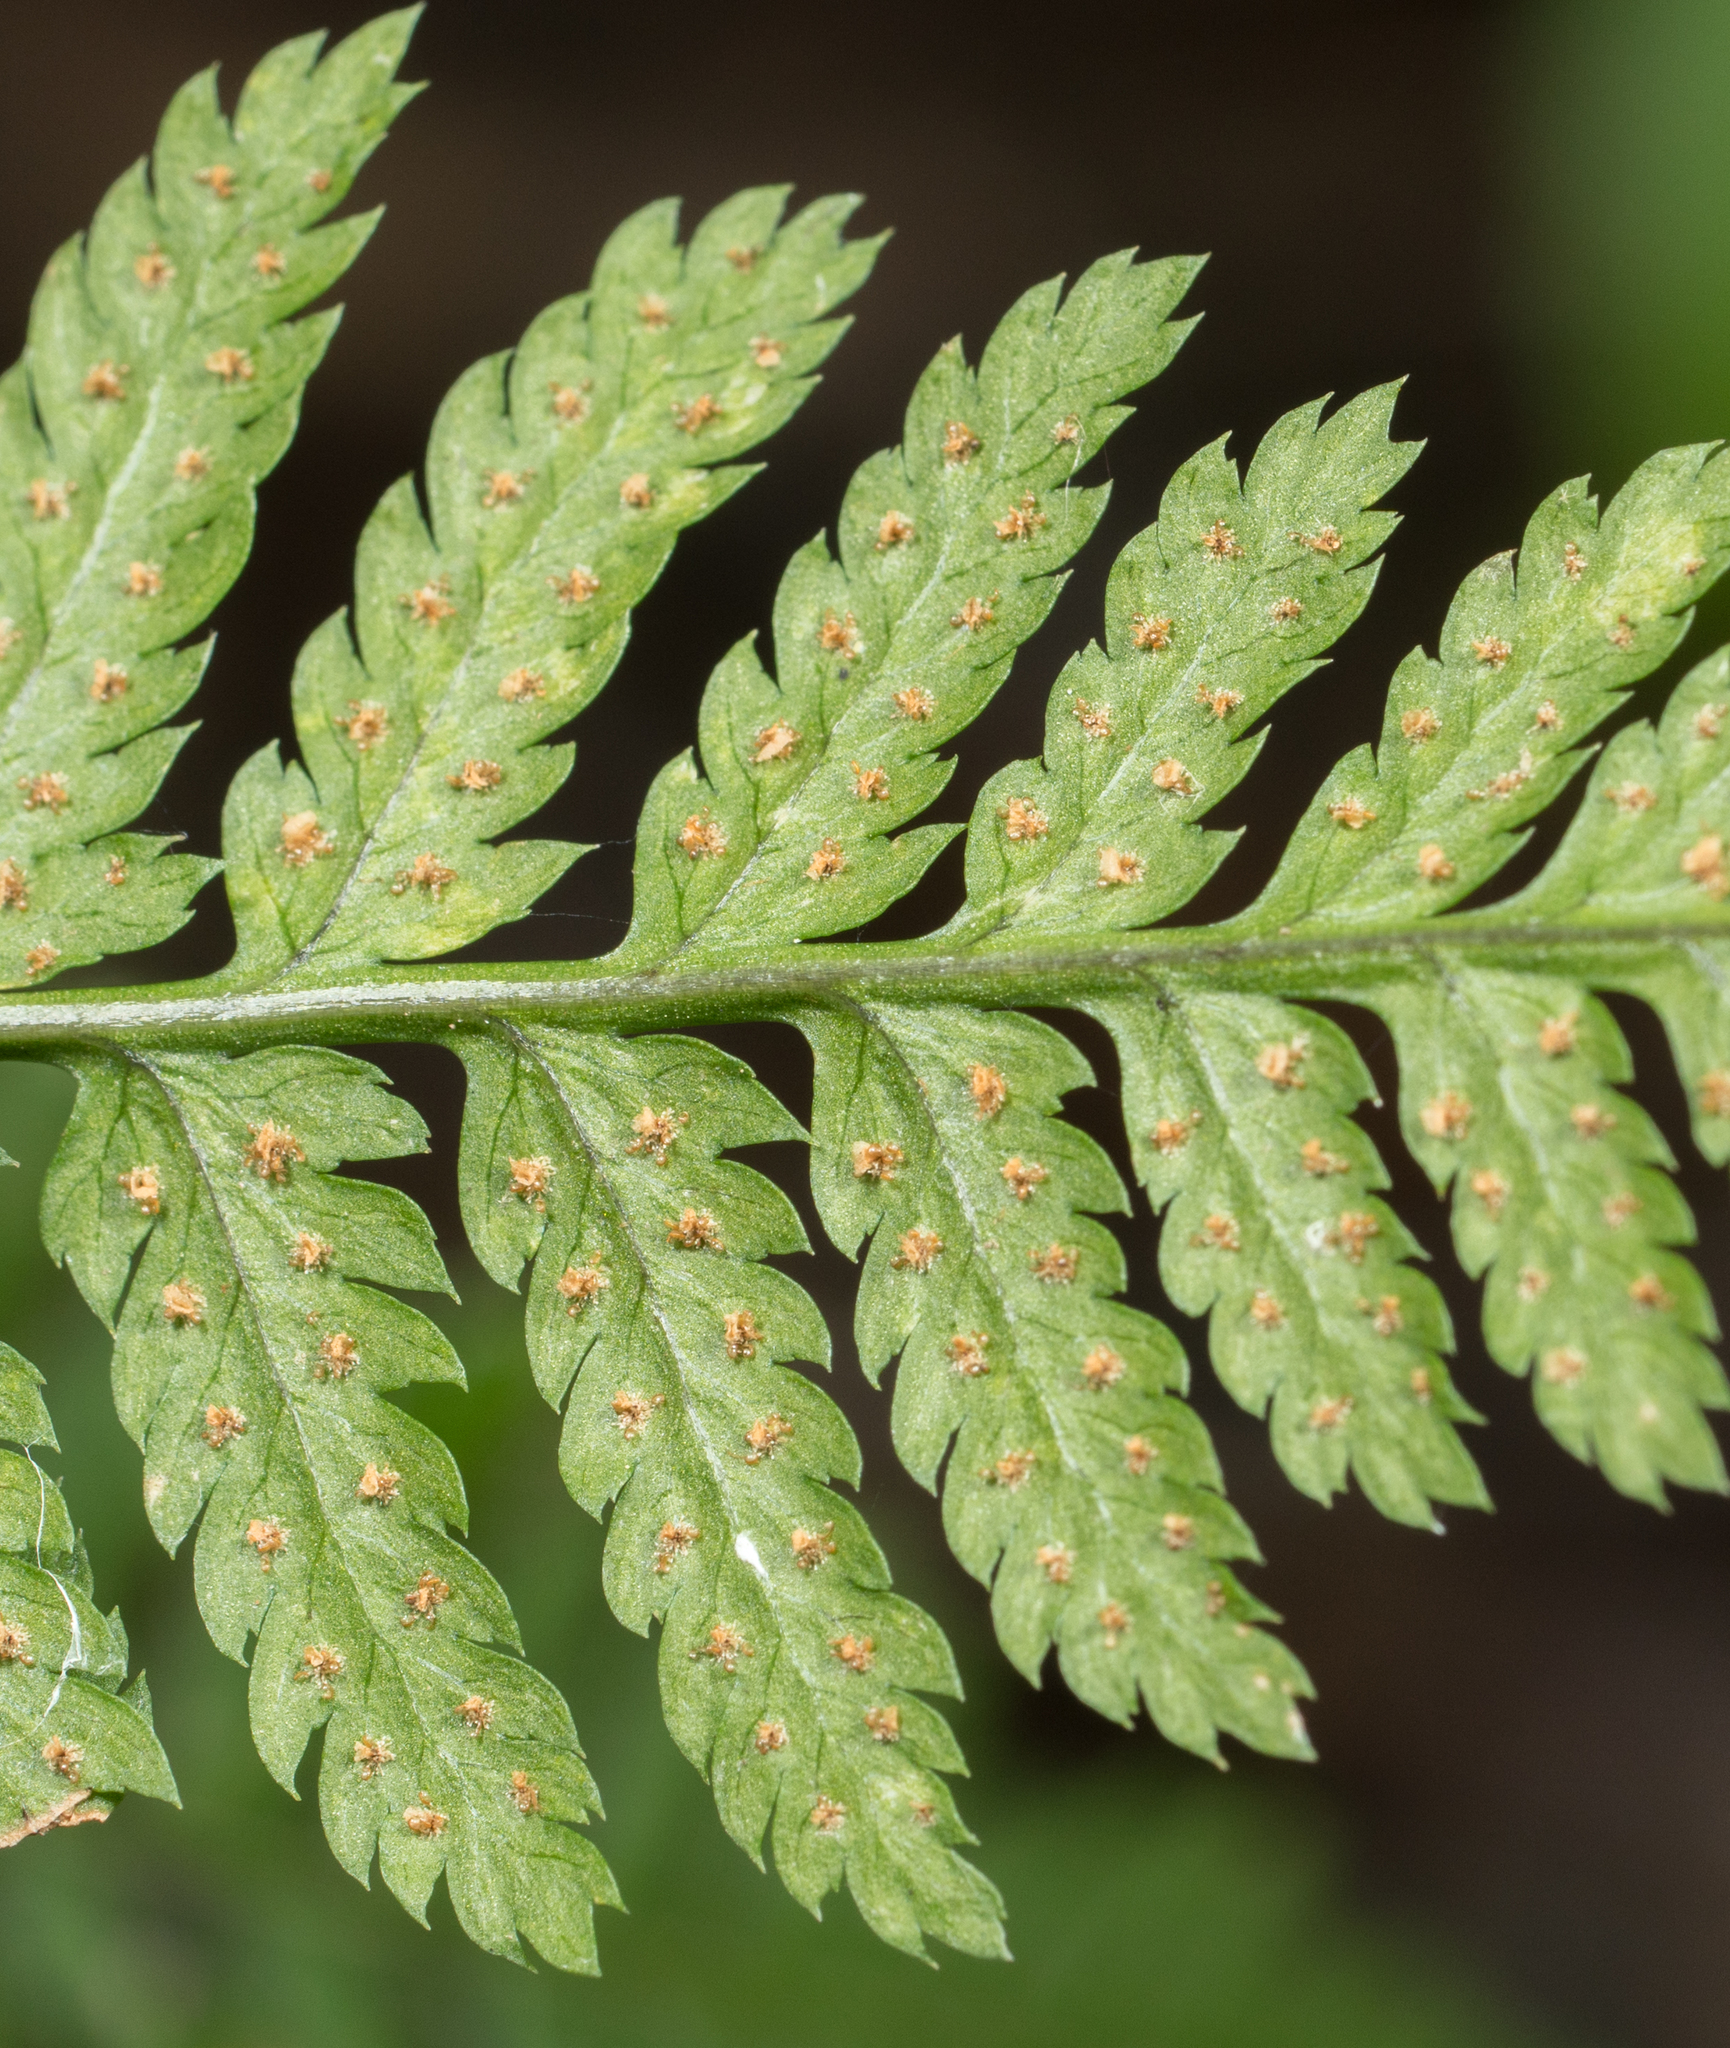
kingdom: Plantae
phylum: Tracheophyta
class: Polypodiopsida
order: Polypodiales
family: Dryopteridaceae
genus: Dryopteris
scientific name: Dryopteris carthusiana
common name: Narrow buckler-fern
